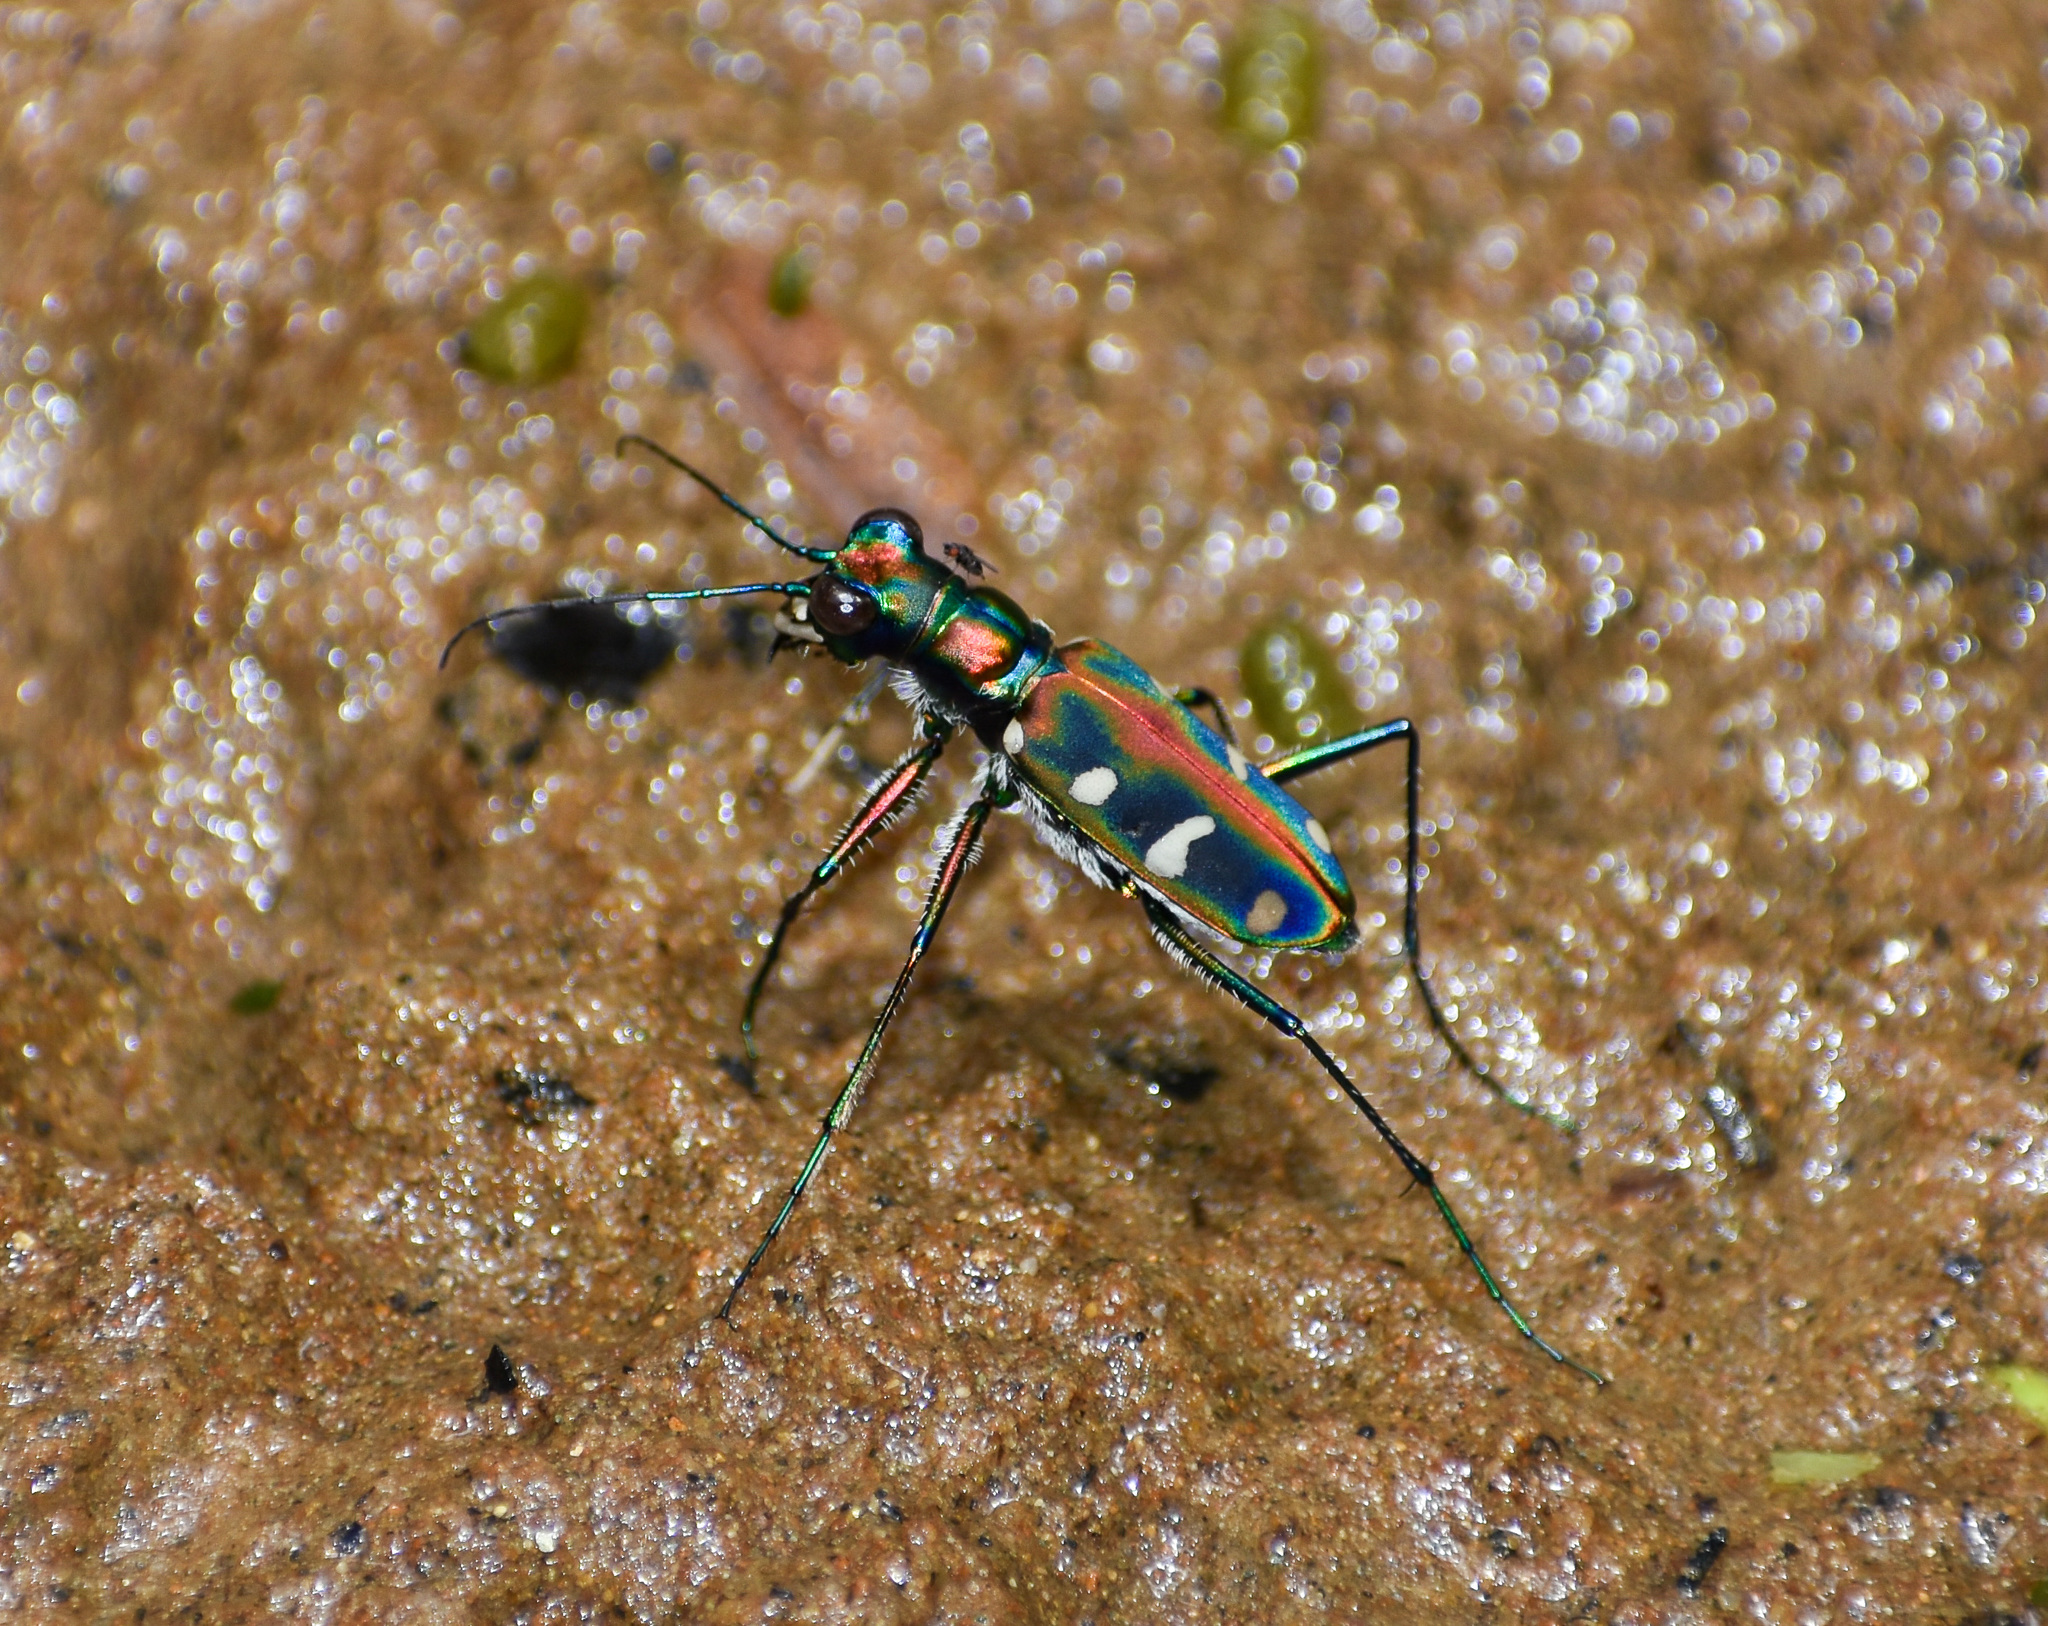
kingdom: Animalia
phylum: Arthropoda
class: Insecta
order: Coleoptera
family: Carabidae
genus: Cicindela
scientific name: Cicindela virgula
